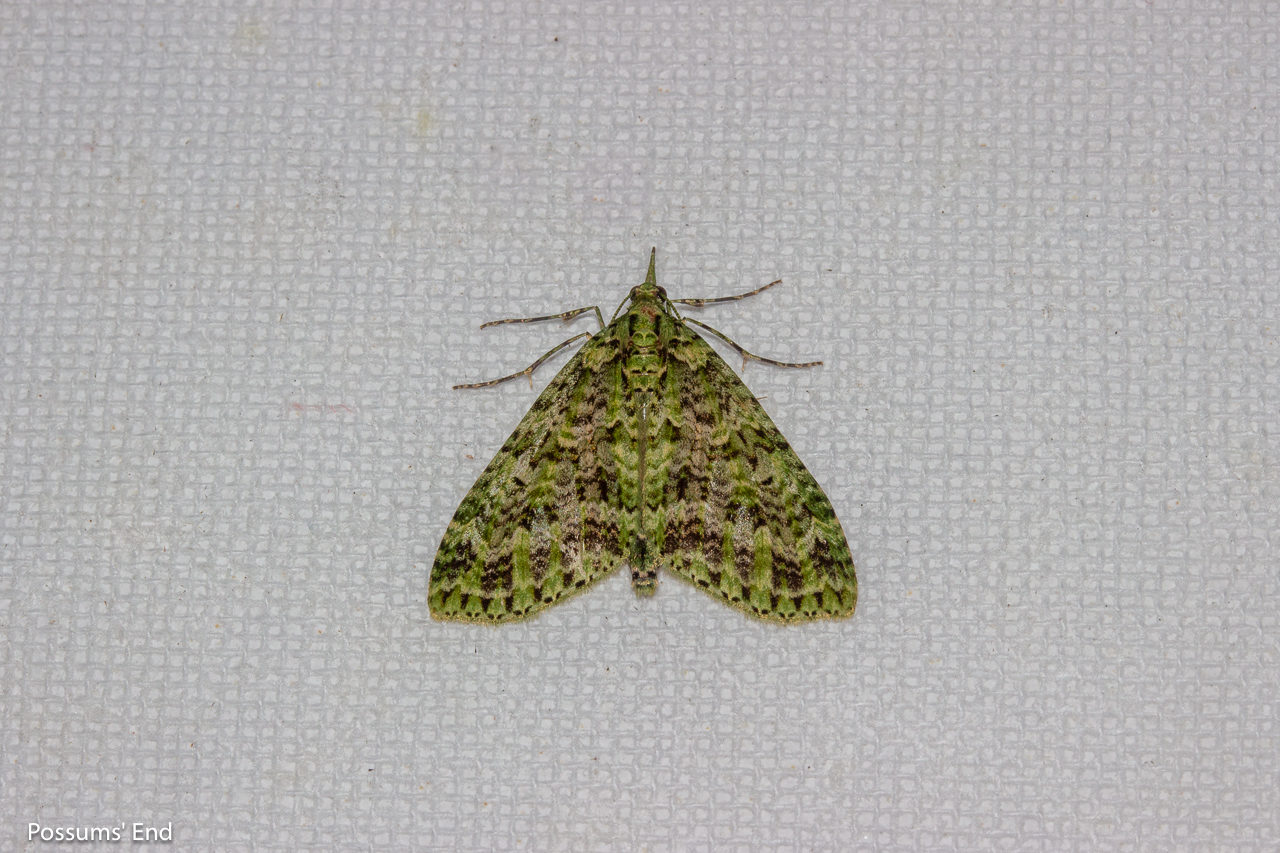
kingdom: Animalia
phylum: Arthropoda
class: Insecta
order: Lepidoptera
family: Geometridae
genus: Tatosoma
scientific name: Tatosoma tipulata
